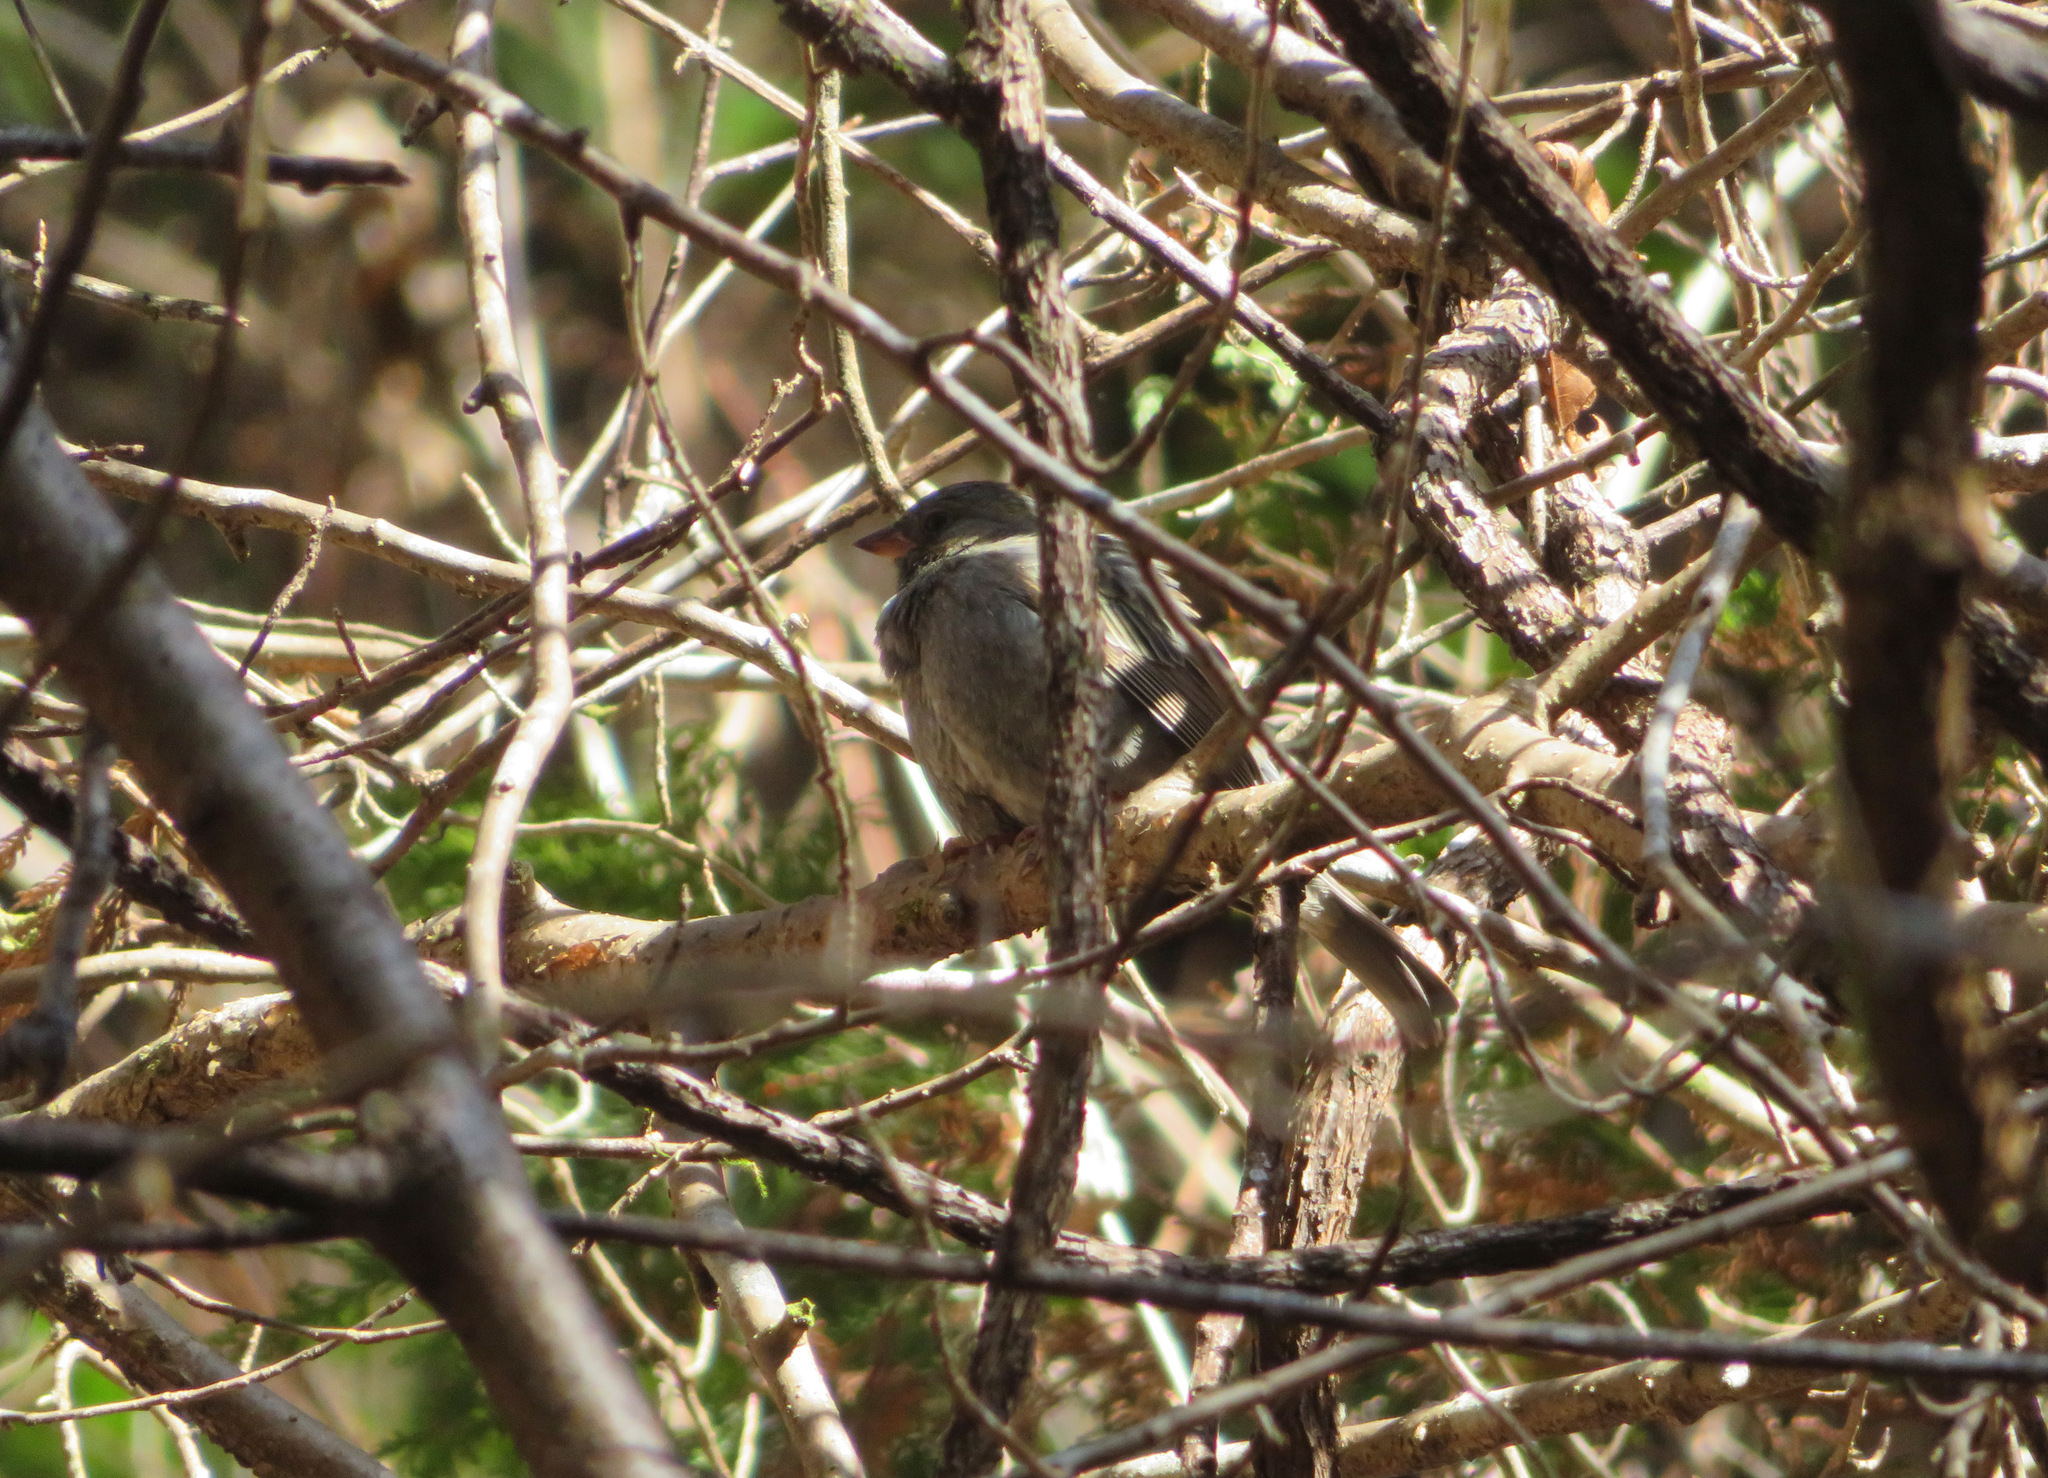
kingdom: Animalia
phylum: Chordata
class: Aves
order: Passeriformes
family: Emberizidae
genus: Emberiza
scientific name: Emberiza variabilis
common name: Gray bunting
